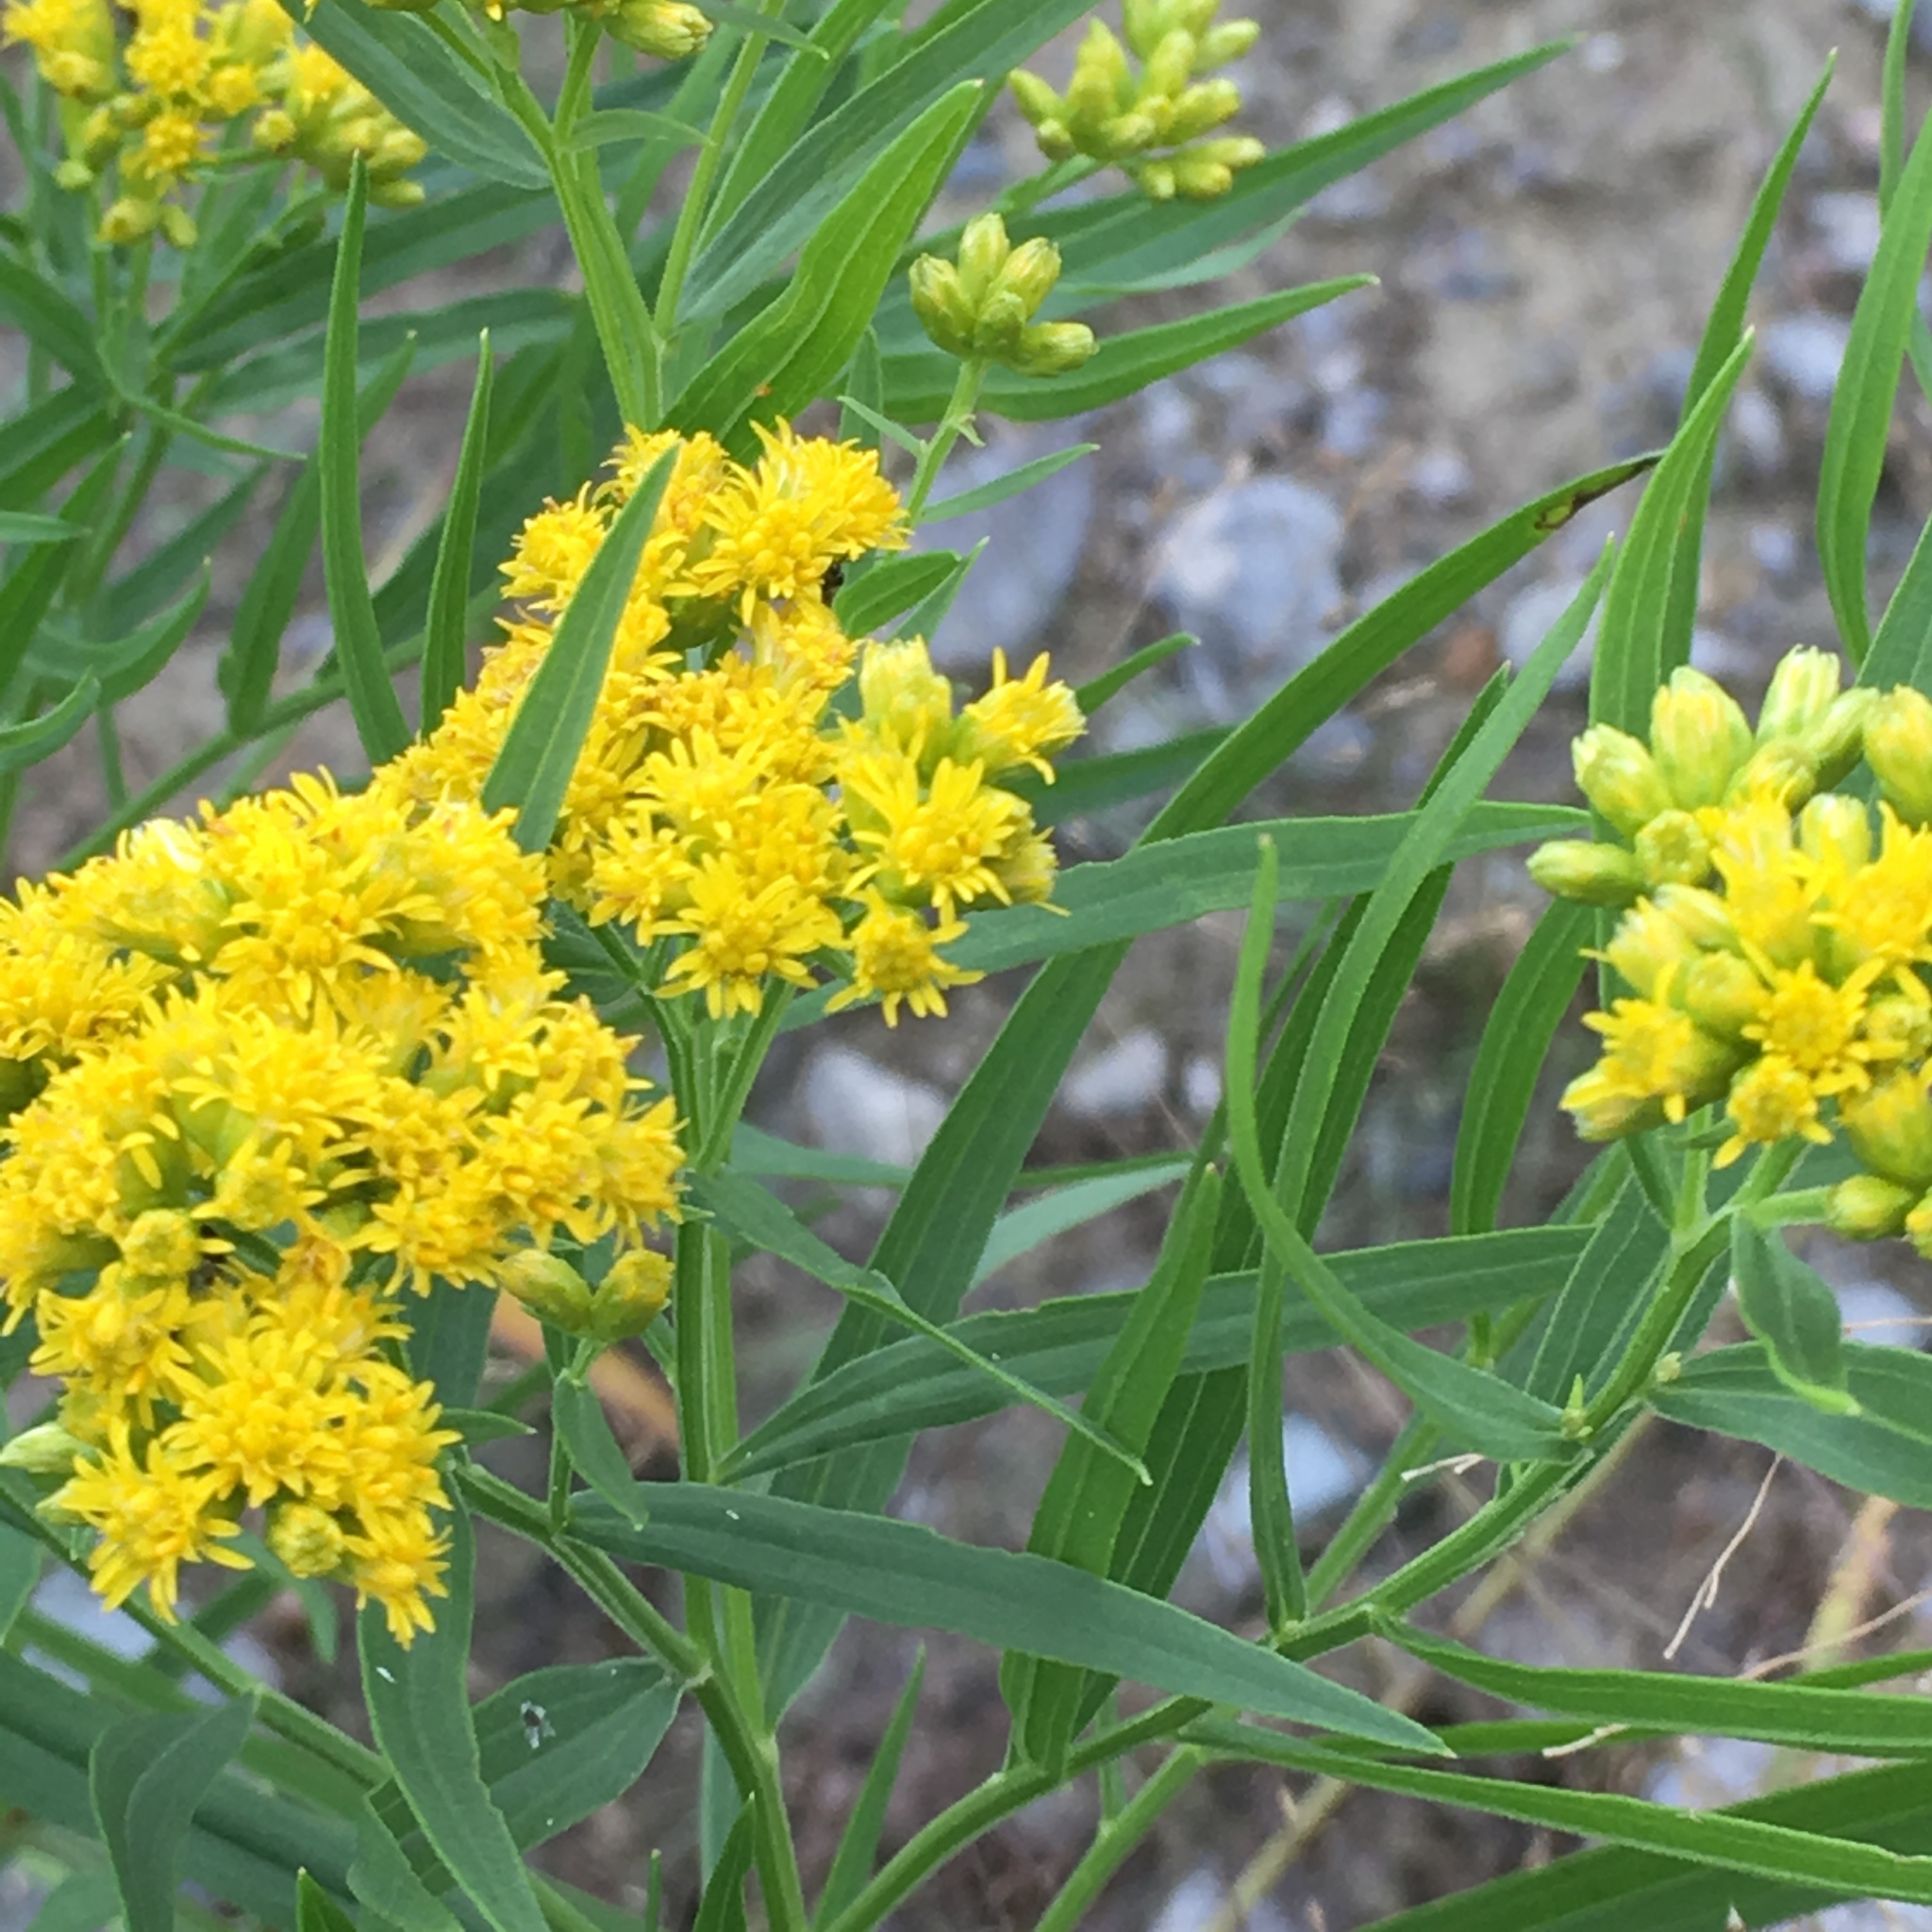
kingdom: Plantae
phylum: Tracheophyta
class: Magnoliopsida
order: Asterales
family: Asteraceae
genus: Euthamia
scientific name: Euthamia graminifolia
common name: Common goldentop
